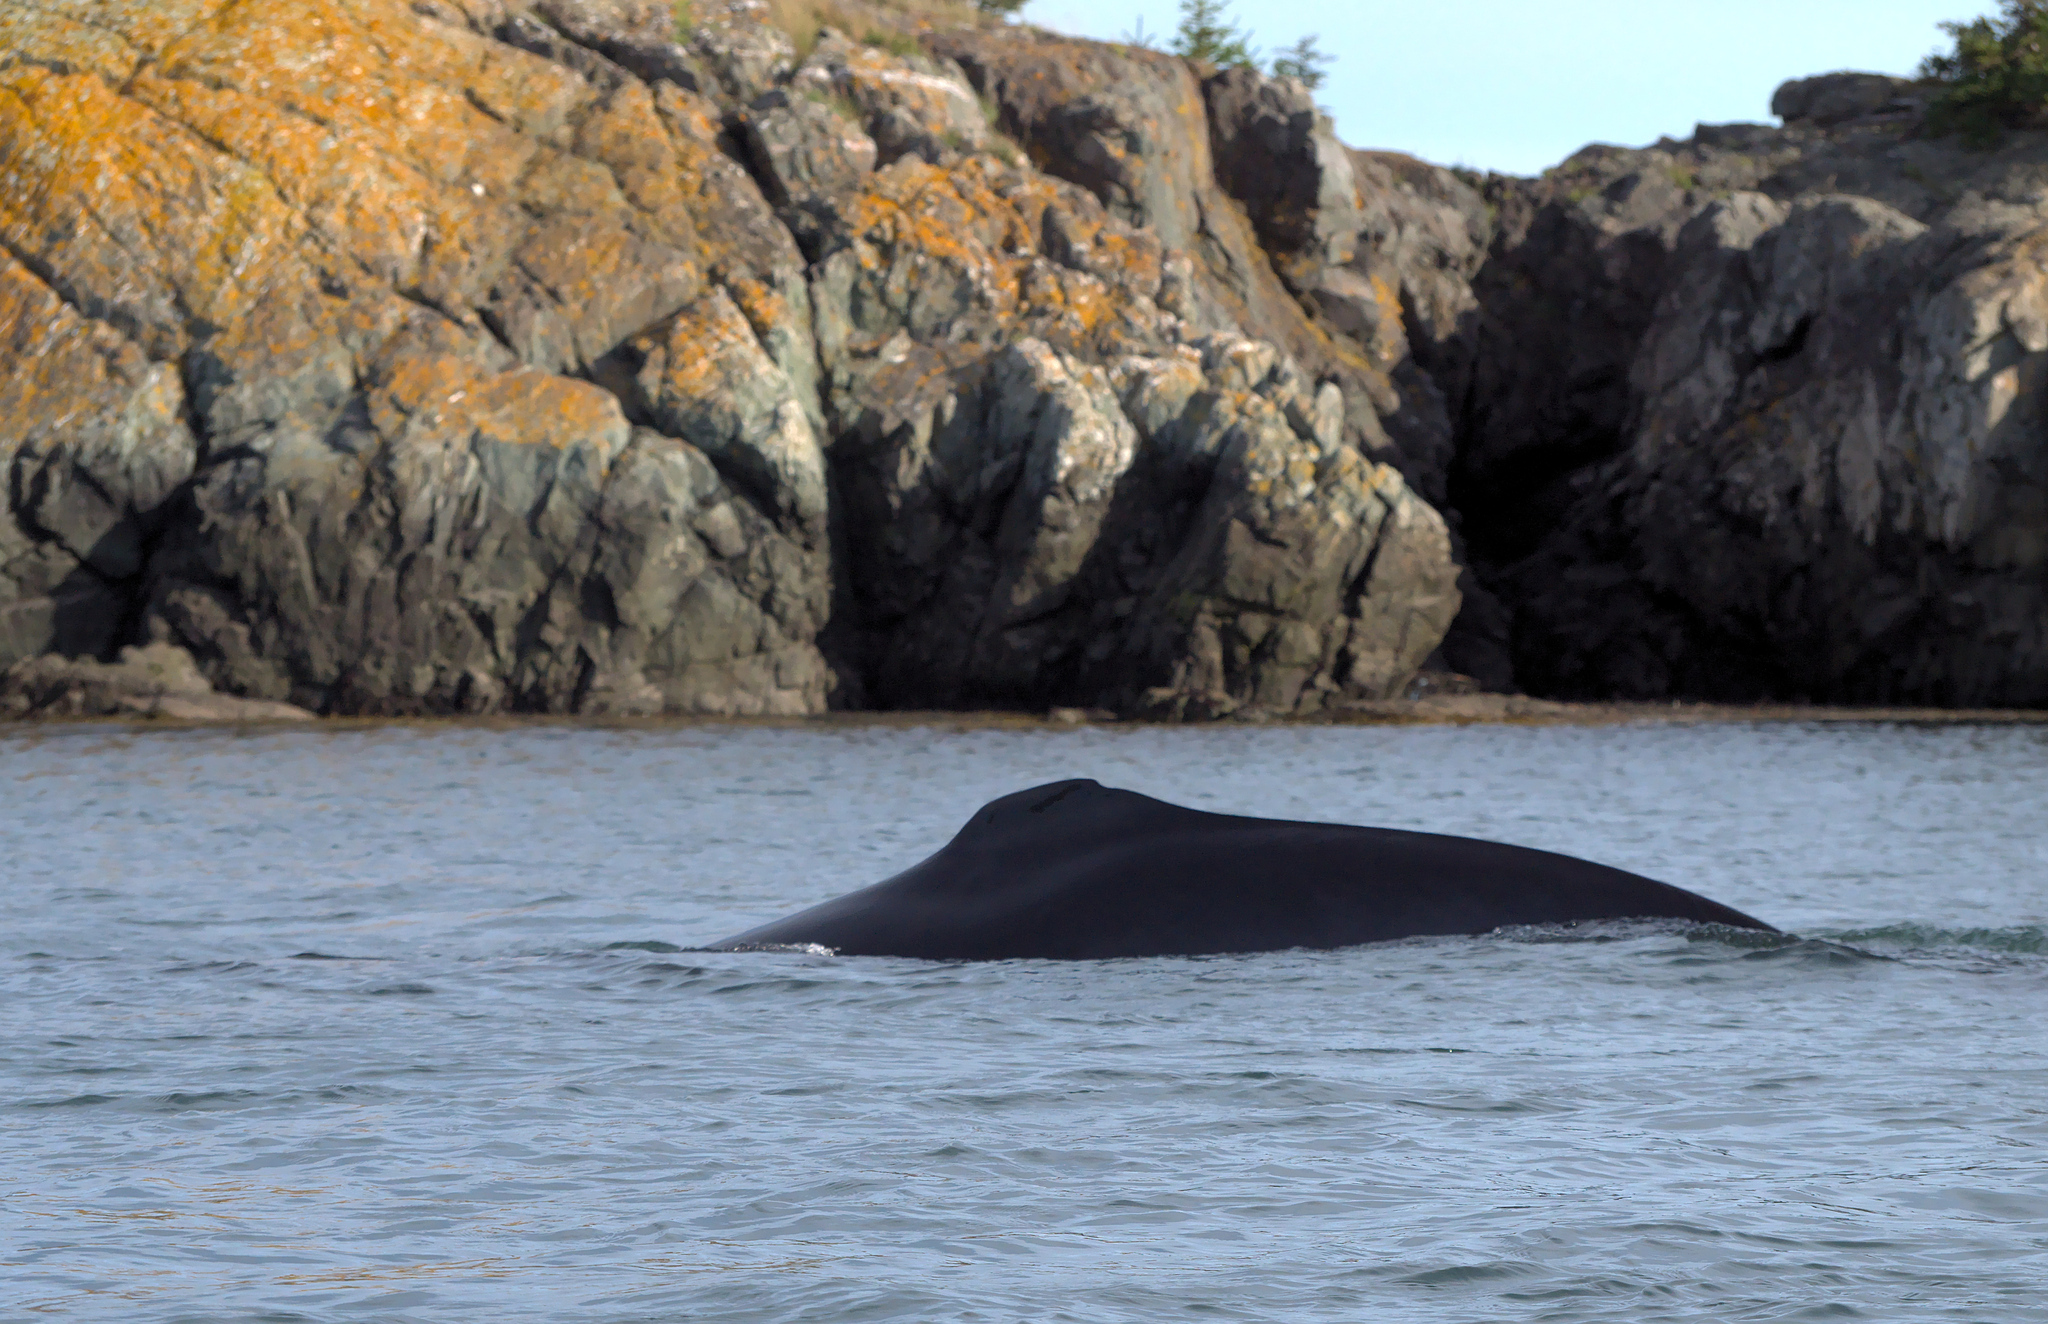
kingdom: Animalia
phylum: Chordata
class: Mammalia
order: Cetacea
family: Balaenopteridae
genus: Balaenoptera
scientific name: Balaenoptera physalus
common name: Fin whale
